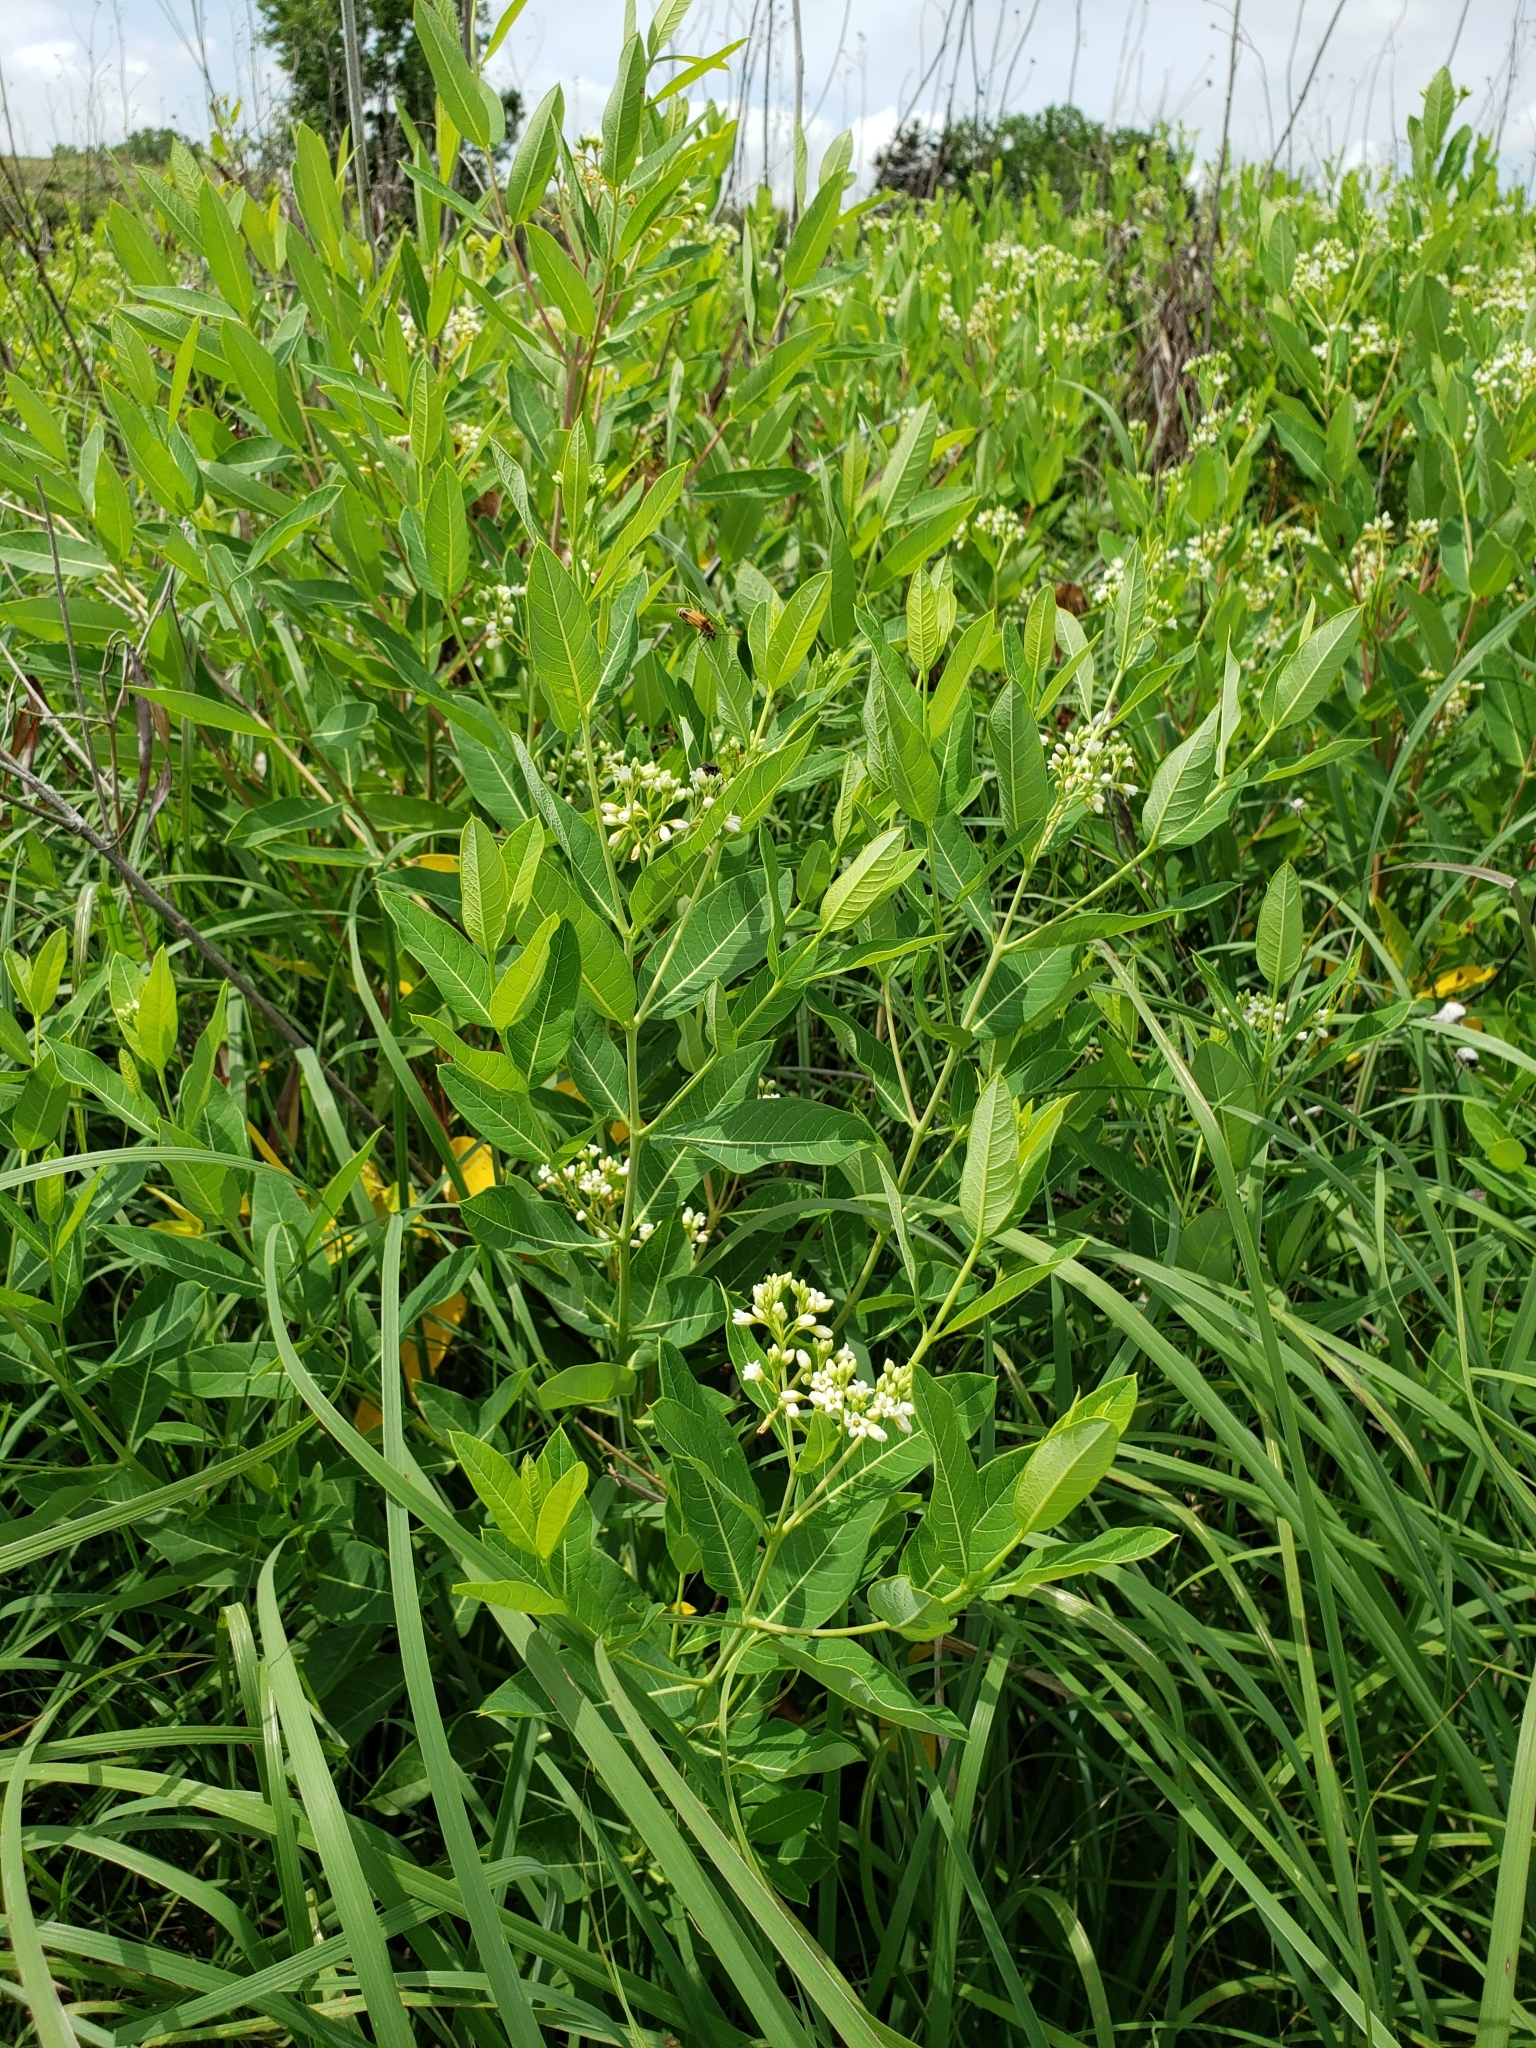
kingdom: Plantae
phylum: Tracheophyta
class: Magnoliopsida
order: Gentianales
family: Apocynaceae
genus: Apocynum
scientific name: Apocynum cannabinum
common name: Hemp dogbane
